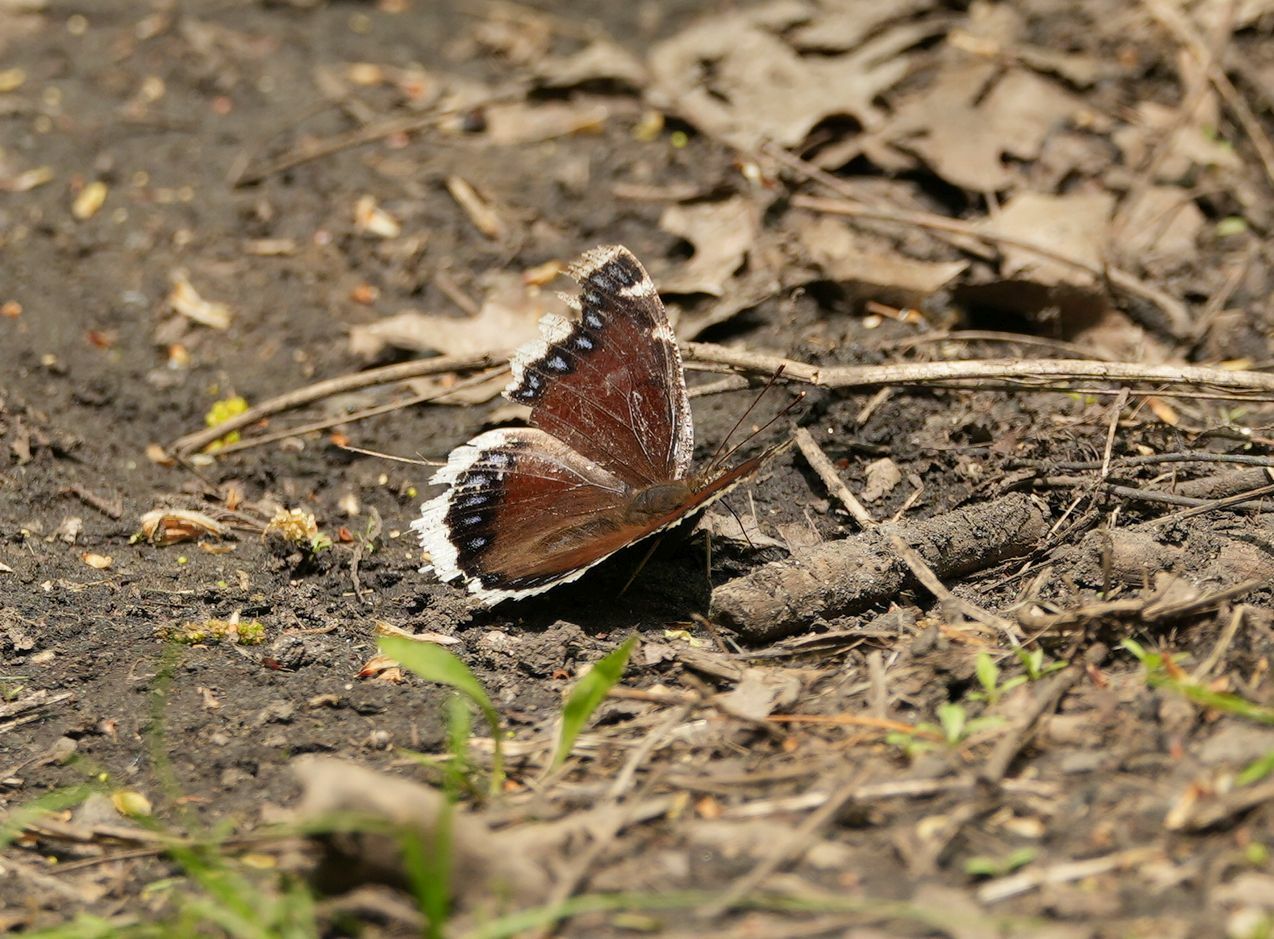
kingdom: Animalia
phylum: Arthropoda
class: Insecta
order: Lepidoptera
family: Nymphalidae
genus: Nymphalis
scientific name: Nymphalis antiopa
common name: Camberwell beauty
